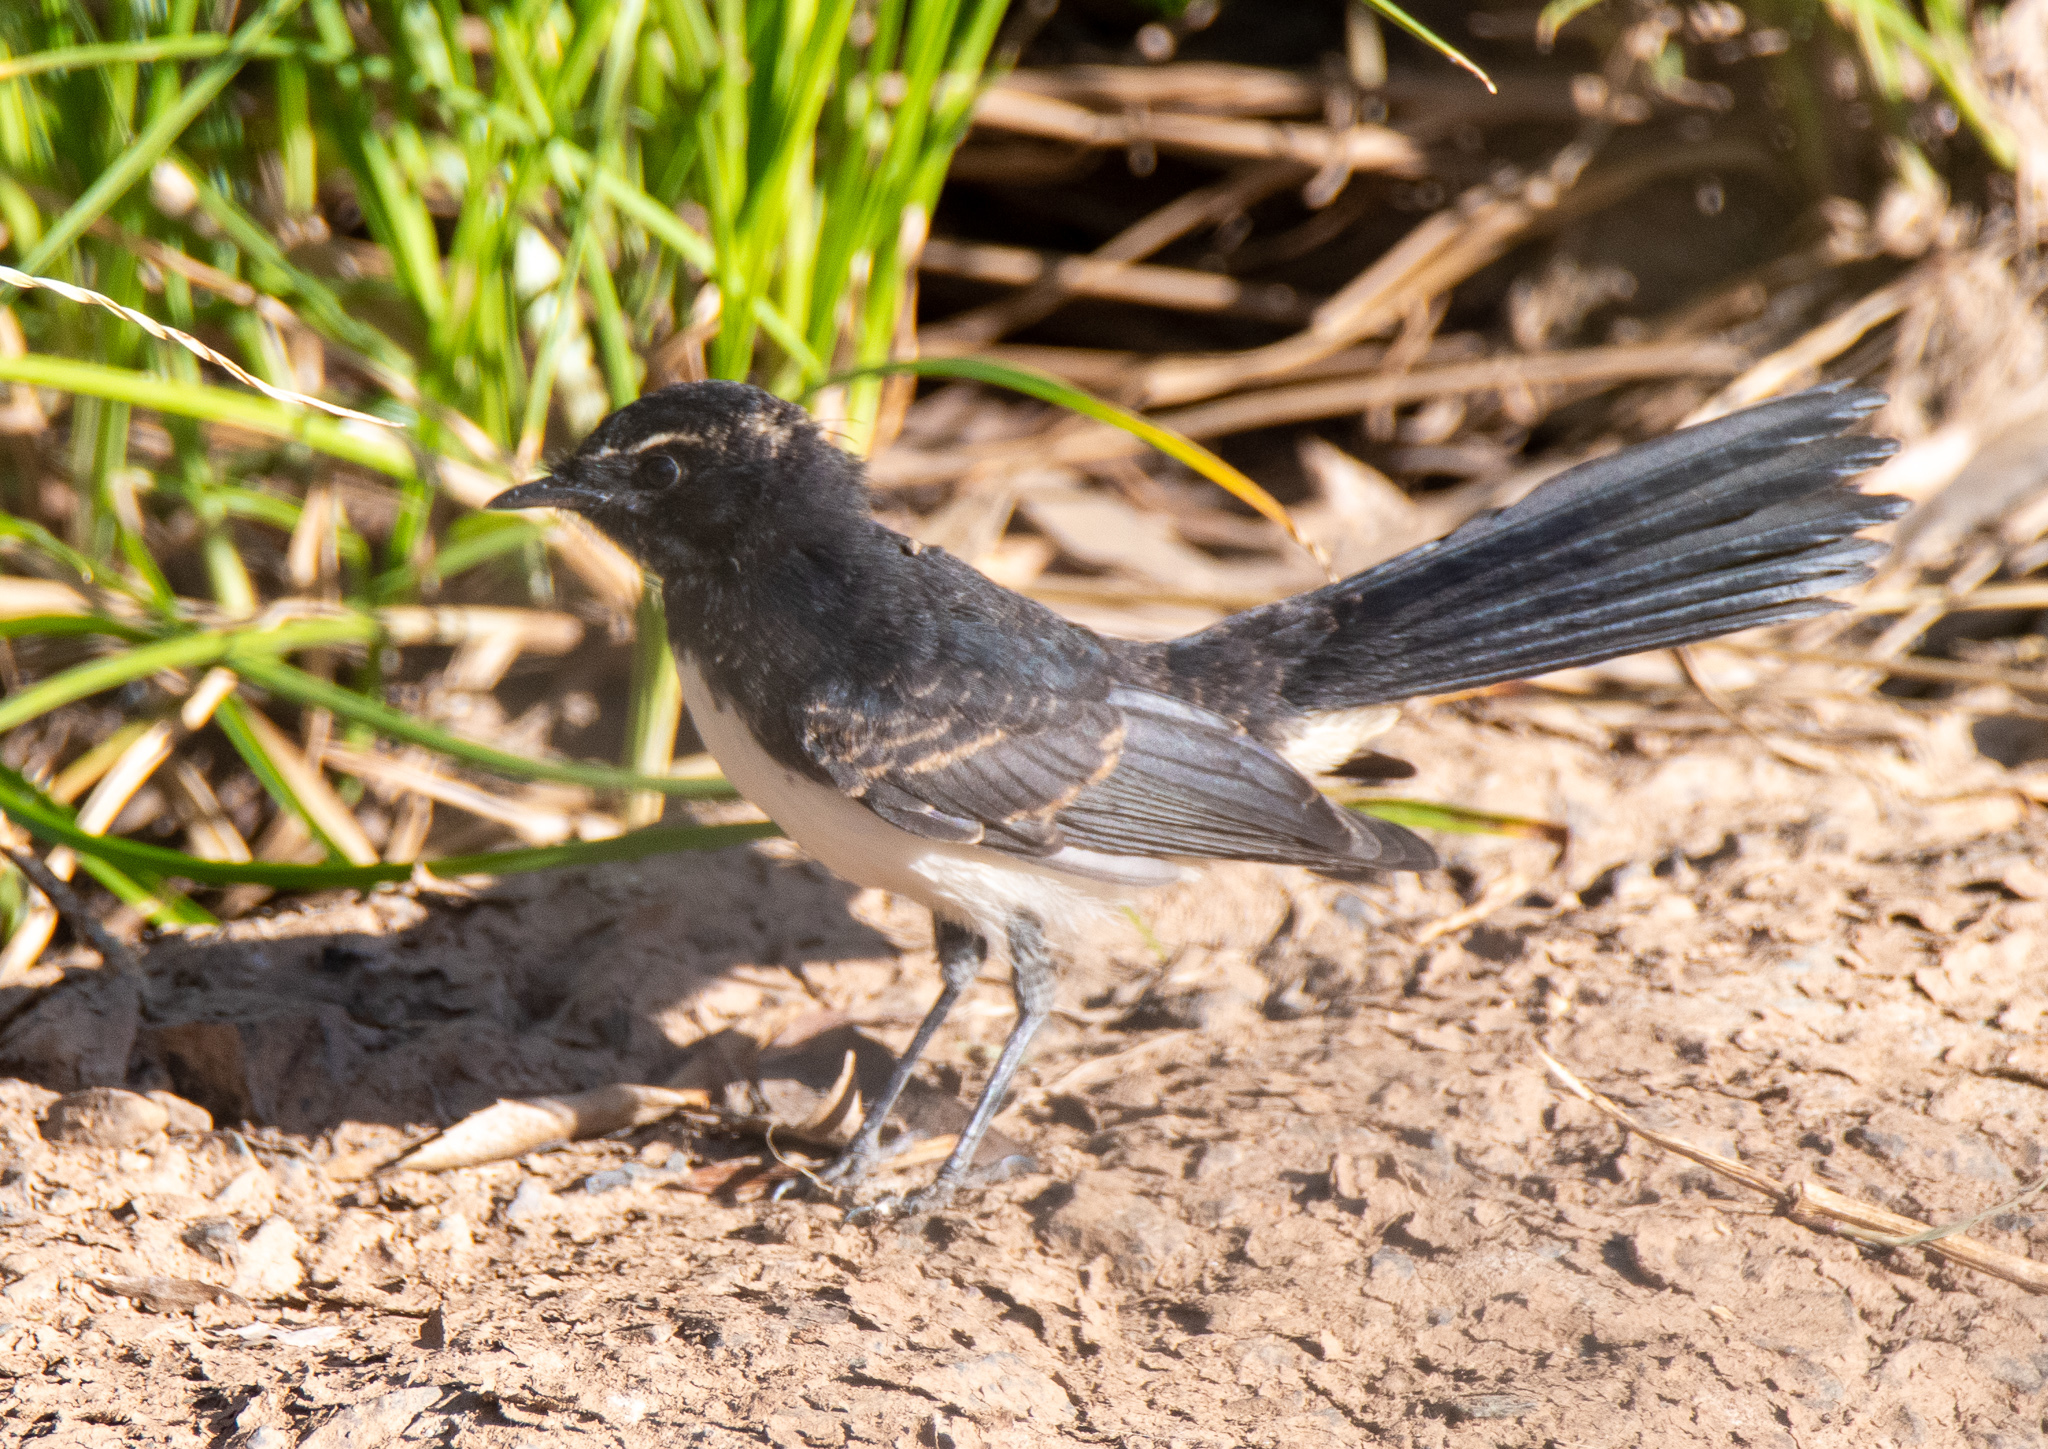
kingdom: Animalia
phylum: Chordata
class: Aves
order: Passeriformes
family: Rhipiduridae
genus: Rhipidura
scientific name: Rhipidura leucophrys
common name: Willie wagtail
